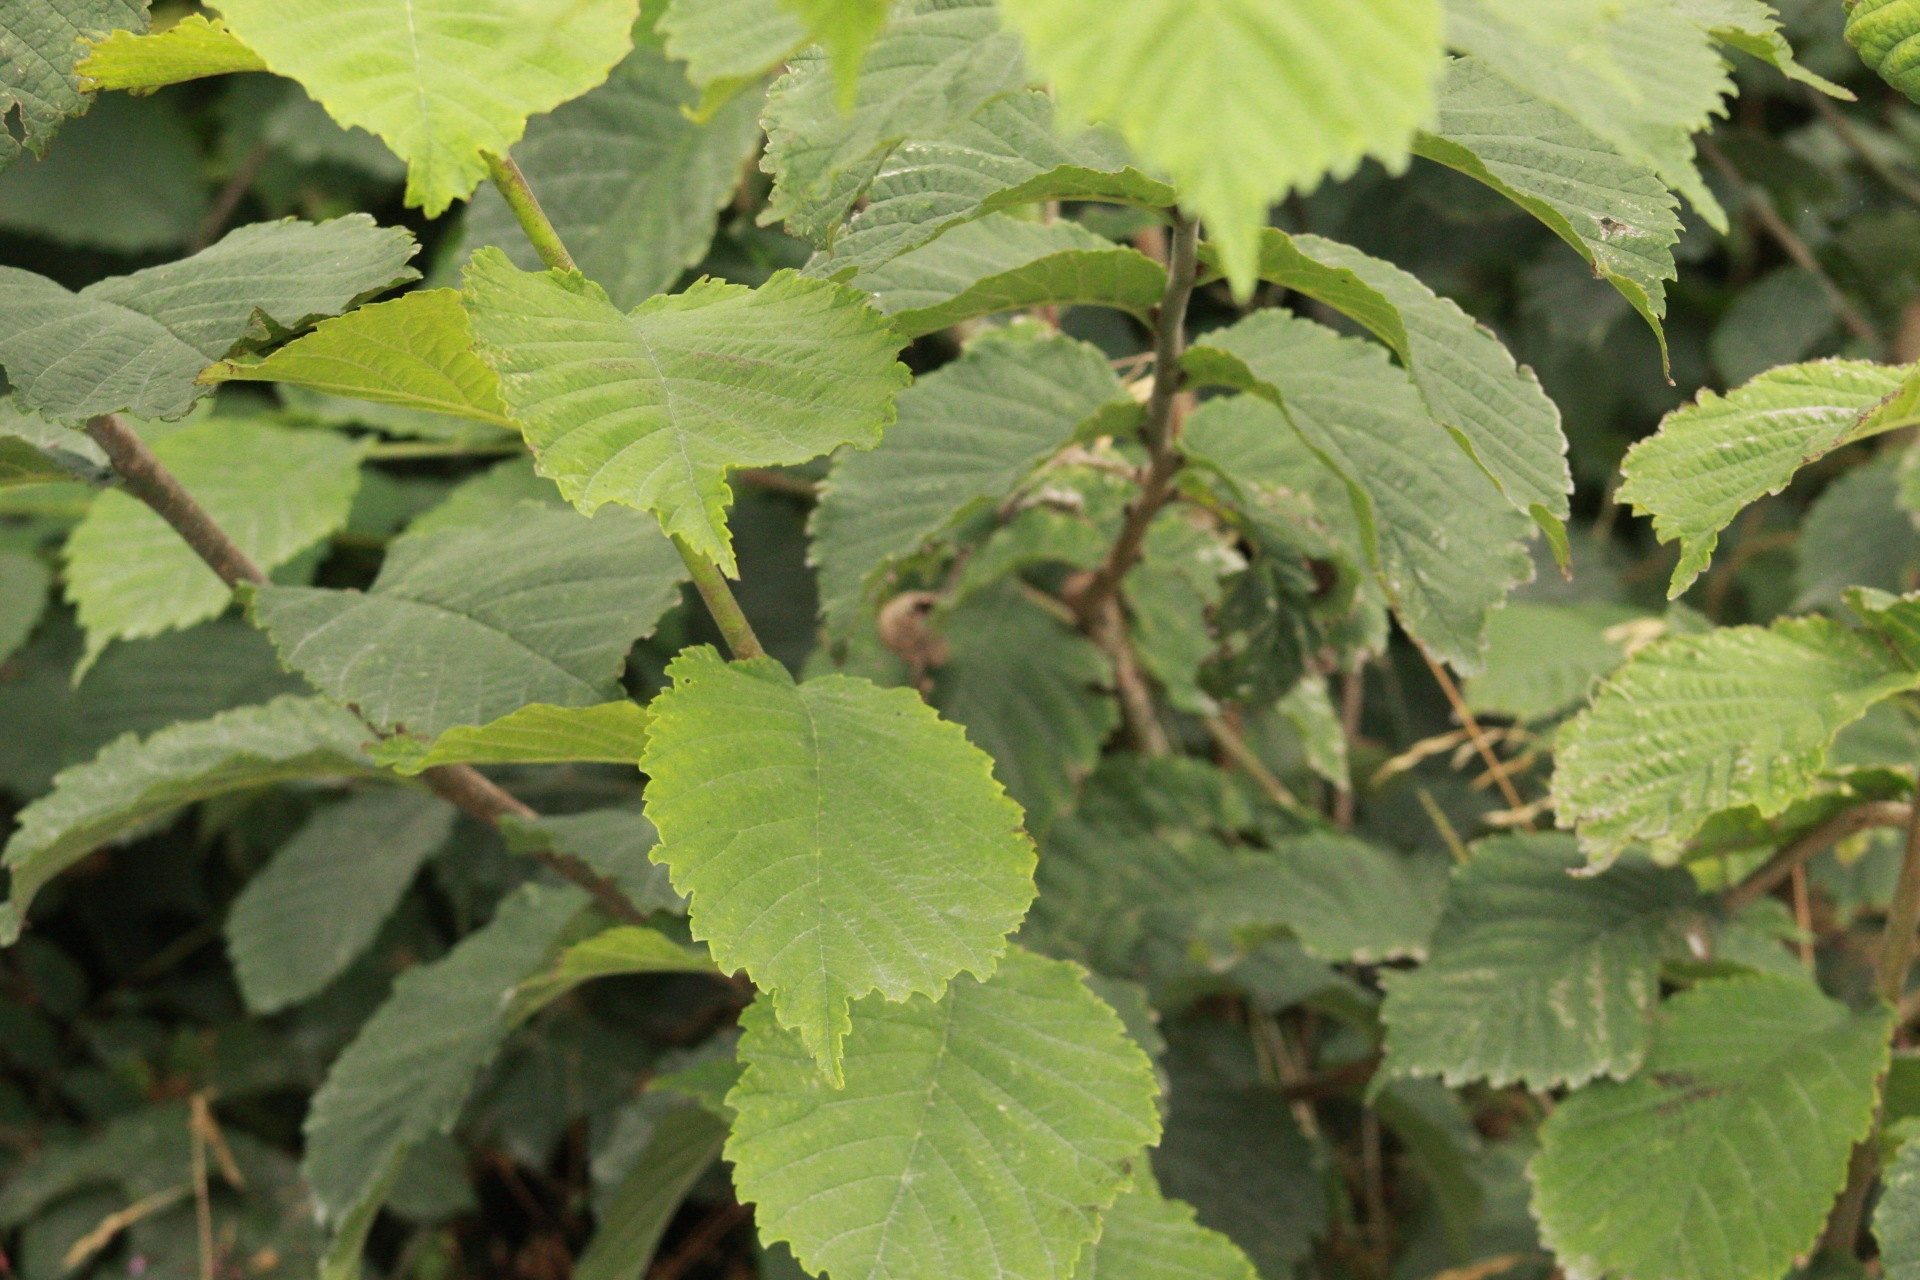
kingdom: Plantae
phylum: Tracheophyta
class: Magnoliopsida
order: Fagales
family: Betulaceae
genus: Corylus
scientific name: Corylus avellana
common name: European hazel
